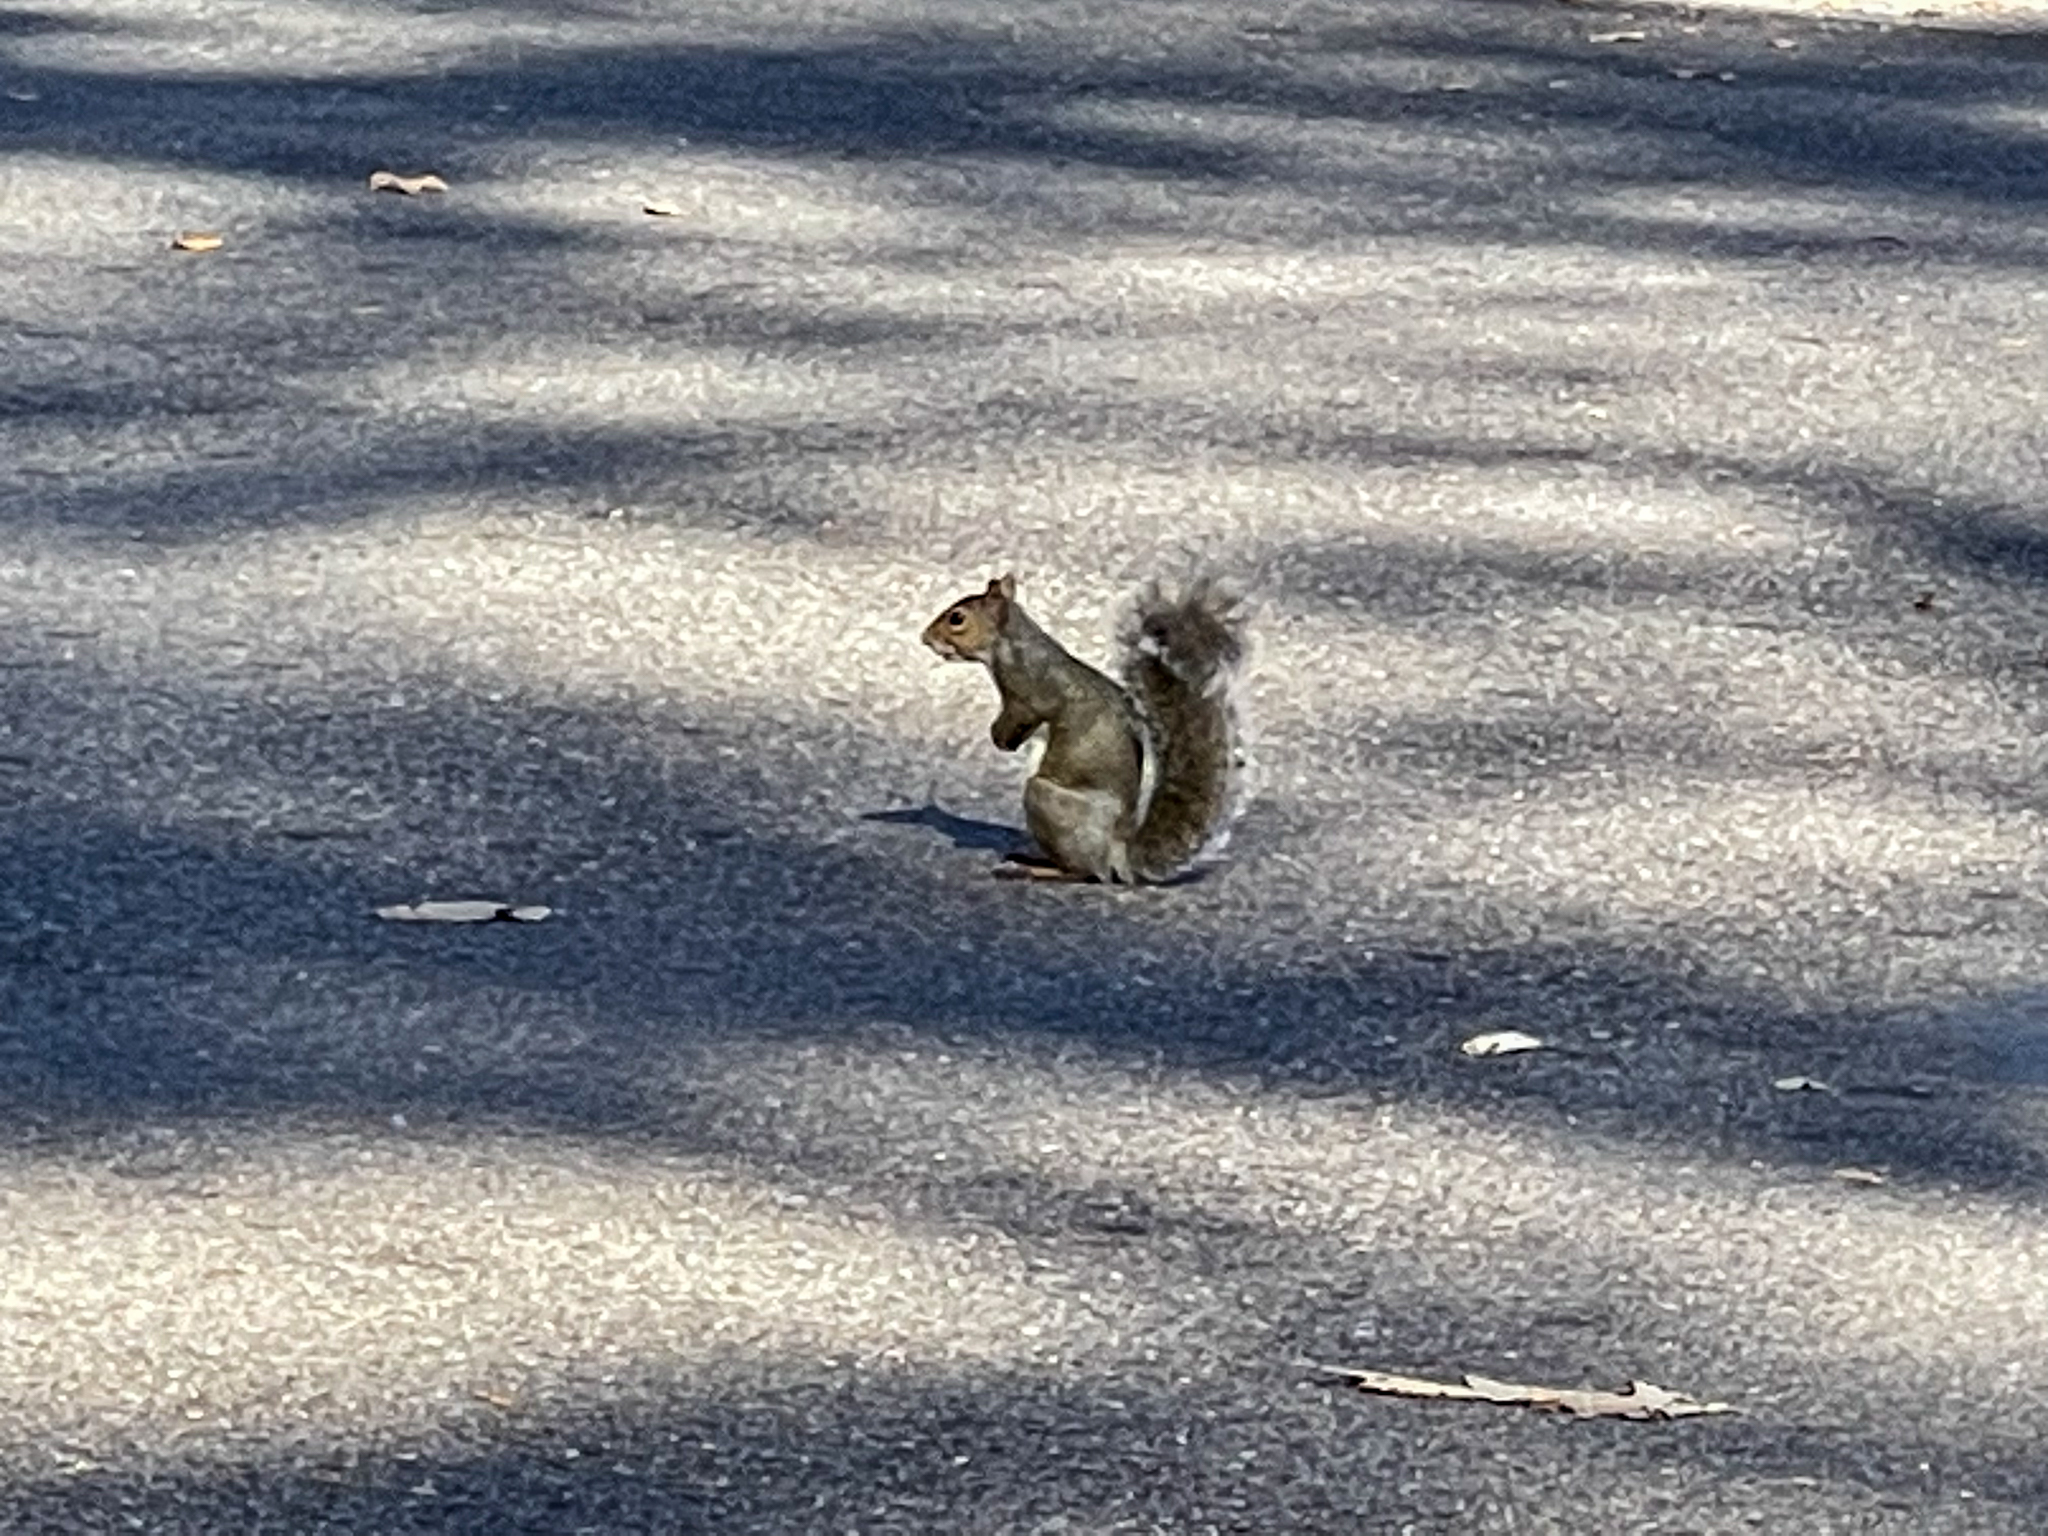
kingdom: Animalia
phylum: Chordata
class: Mammalia
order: Rodentia
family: Sciuridae
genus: Sciurus
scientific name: Sciurus carolinensis
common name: Eastern gray squirrel
